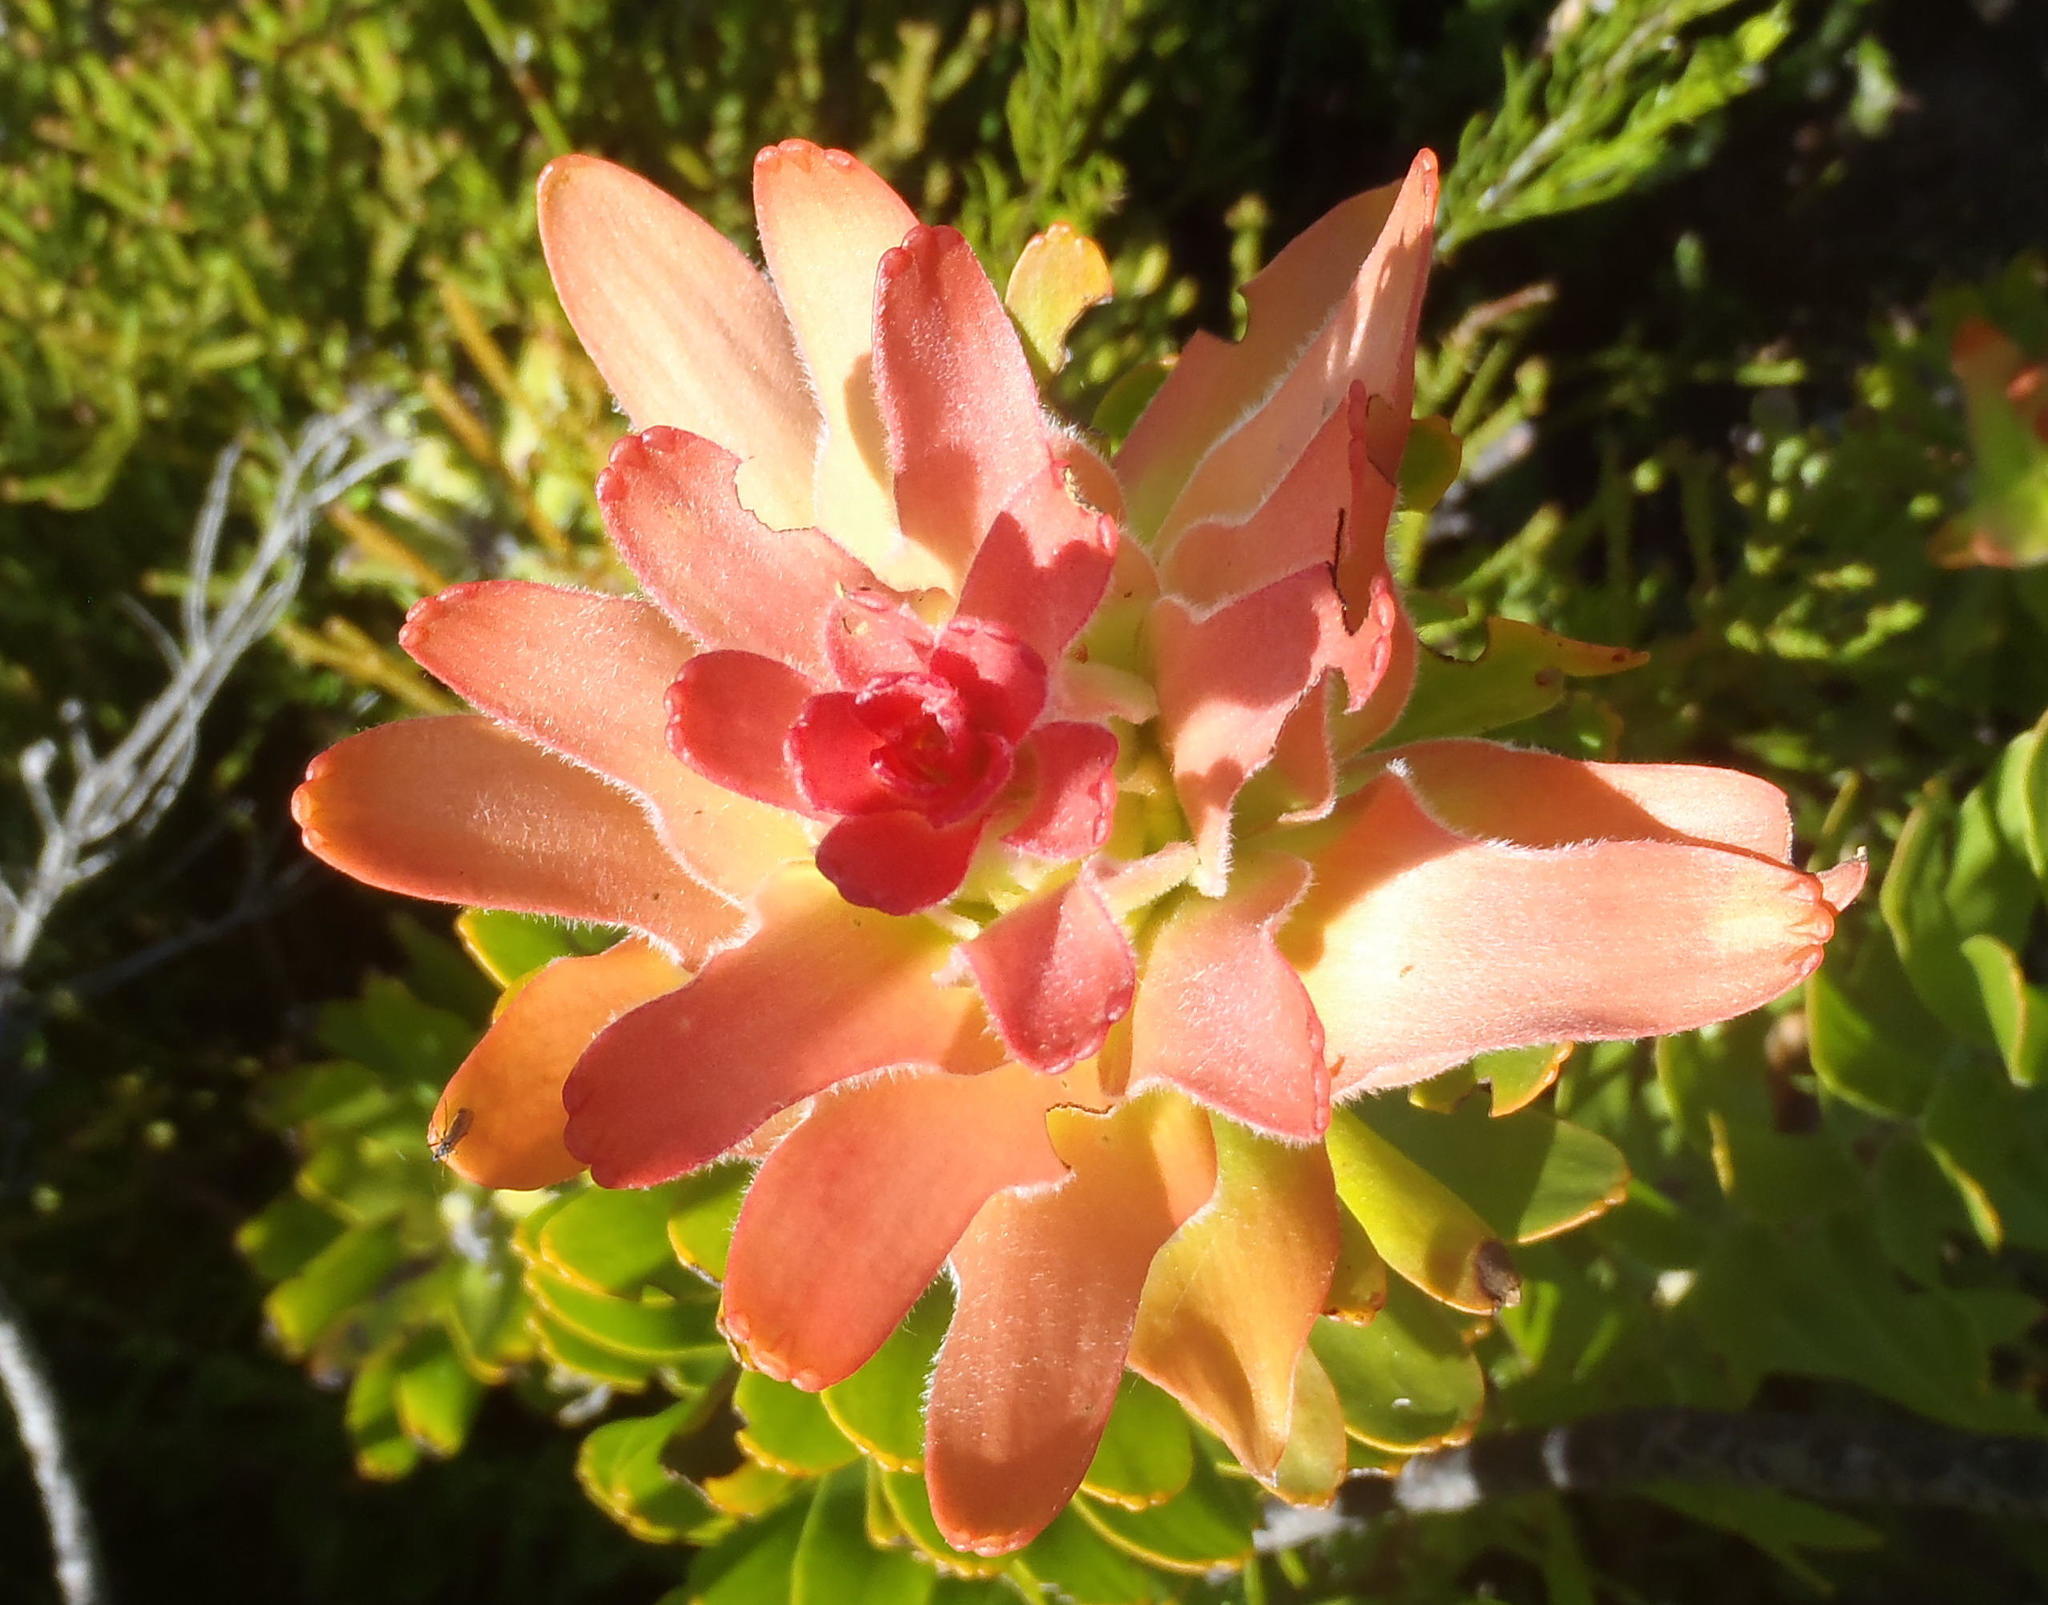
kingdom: Plantae
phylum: Tracheophyta
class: Magnoliopsida
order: Proteales
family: Proteaceae
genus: Mimetes
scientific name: Mimetes cucullatus
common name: Common pagoda
